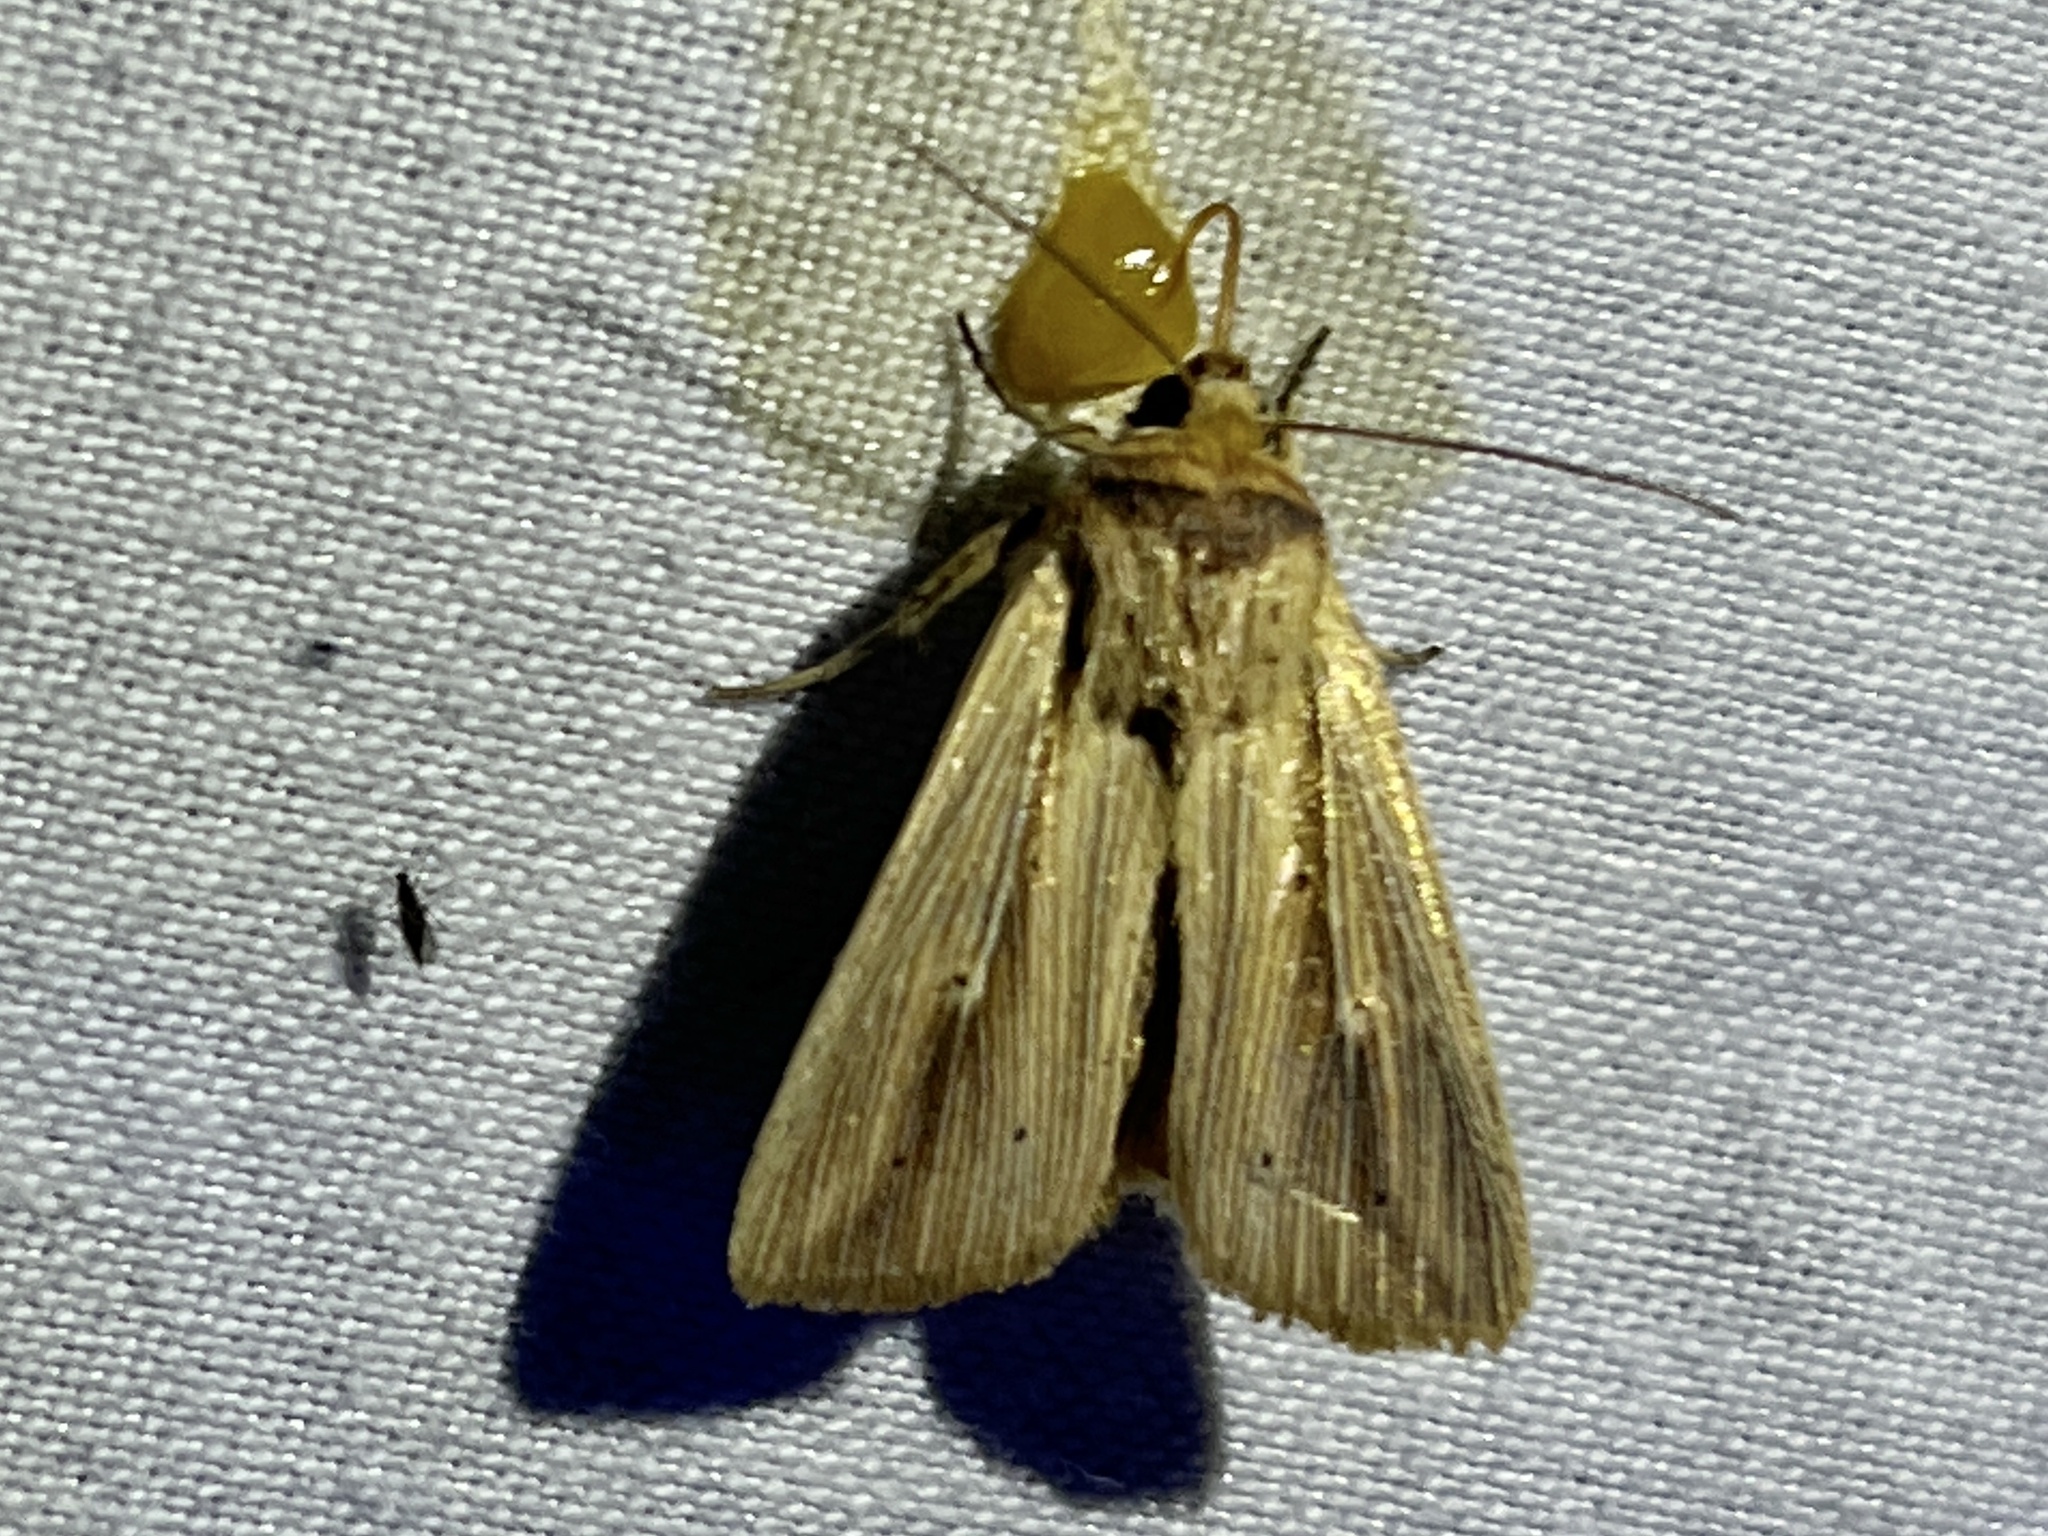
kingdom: Animalia
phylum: Arthropoda
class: Insecta
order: Lepidoptera
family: Noctuidae
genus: Leucania
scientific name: Leucania adjuta
